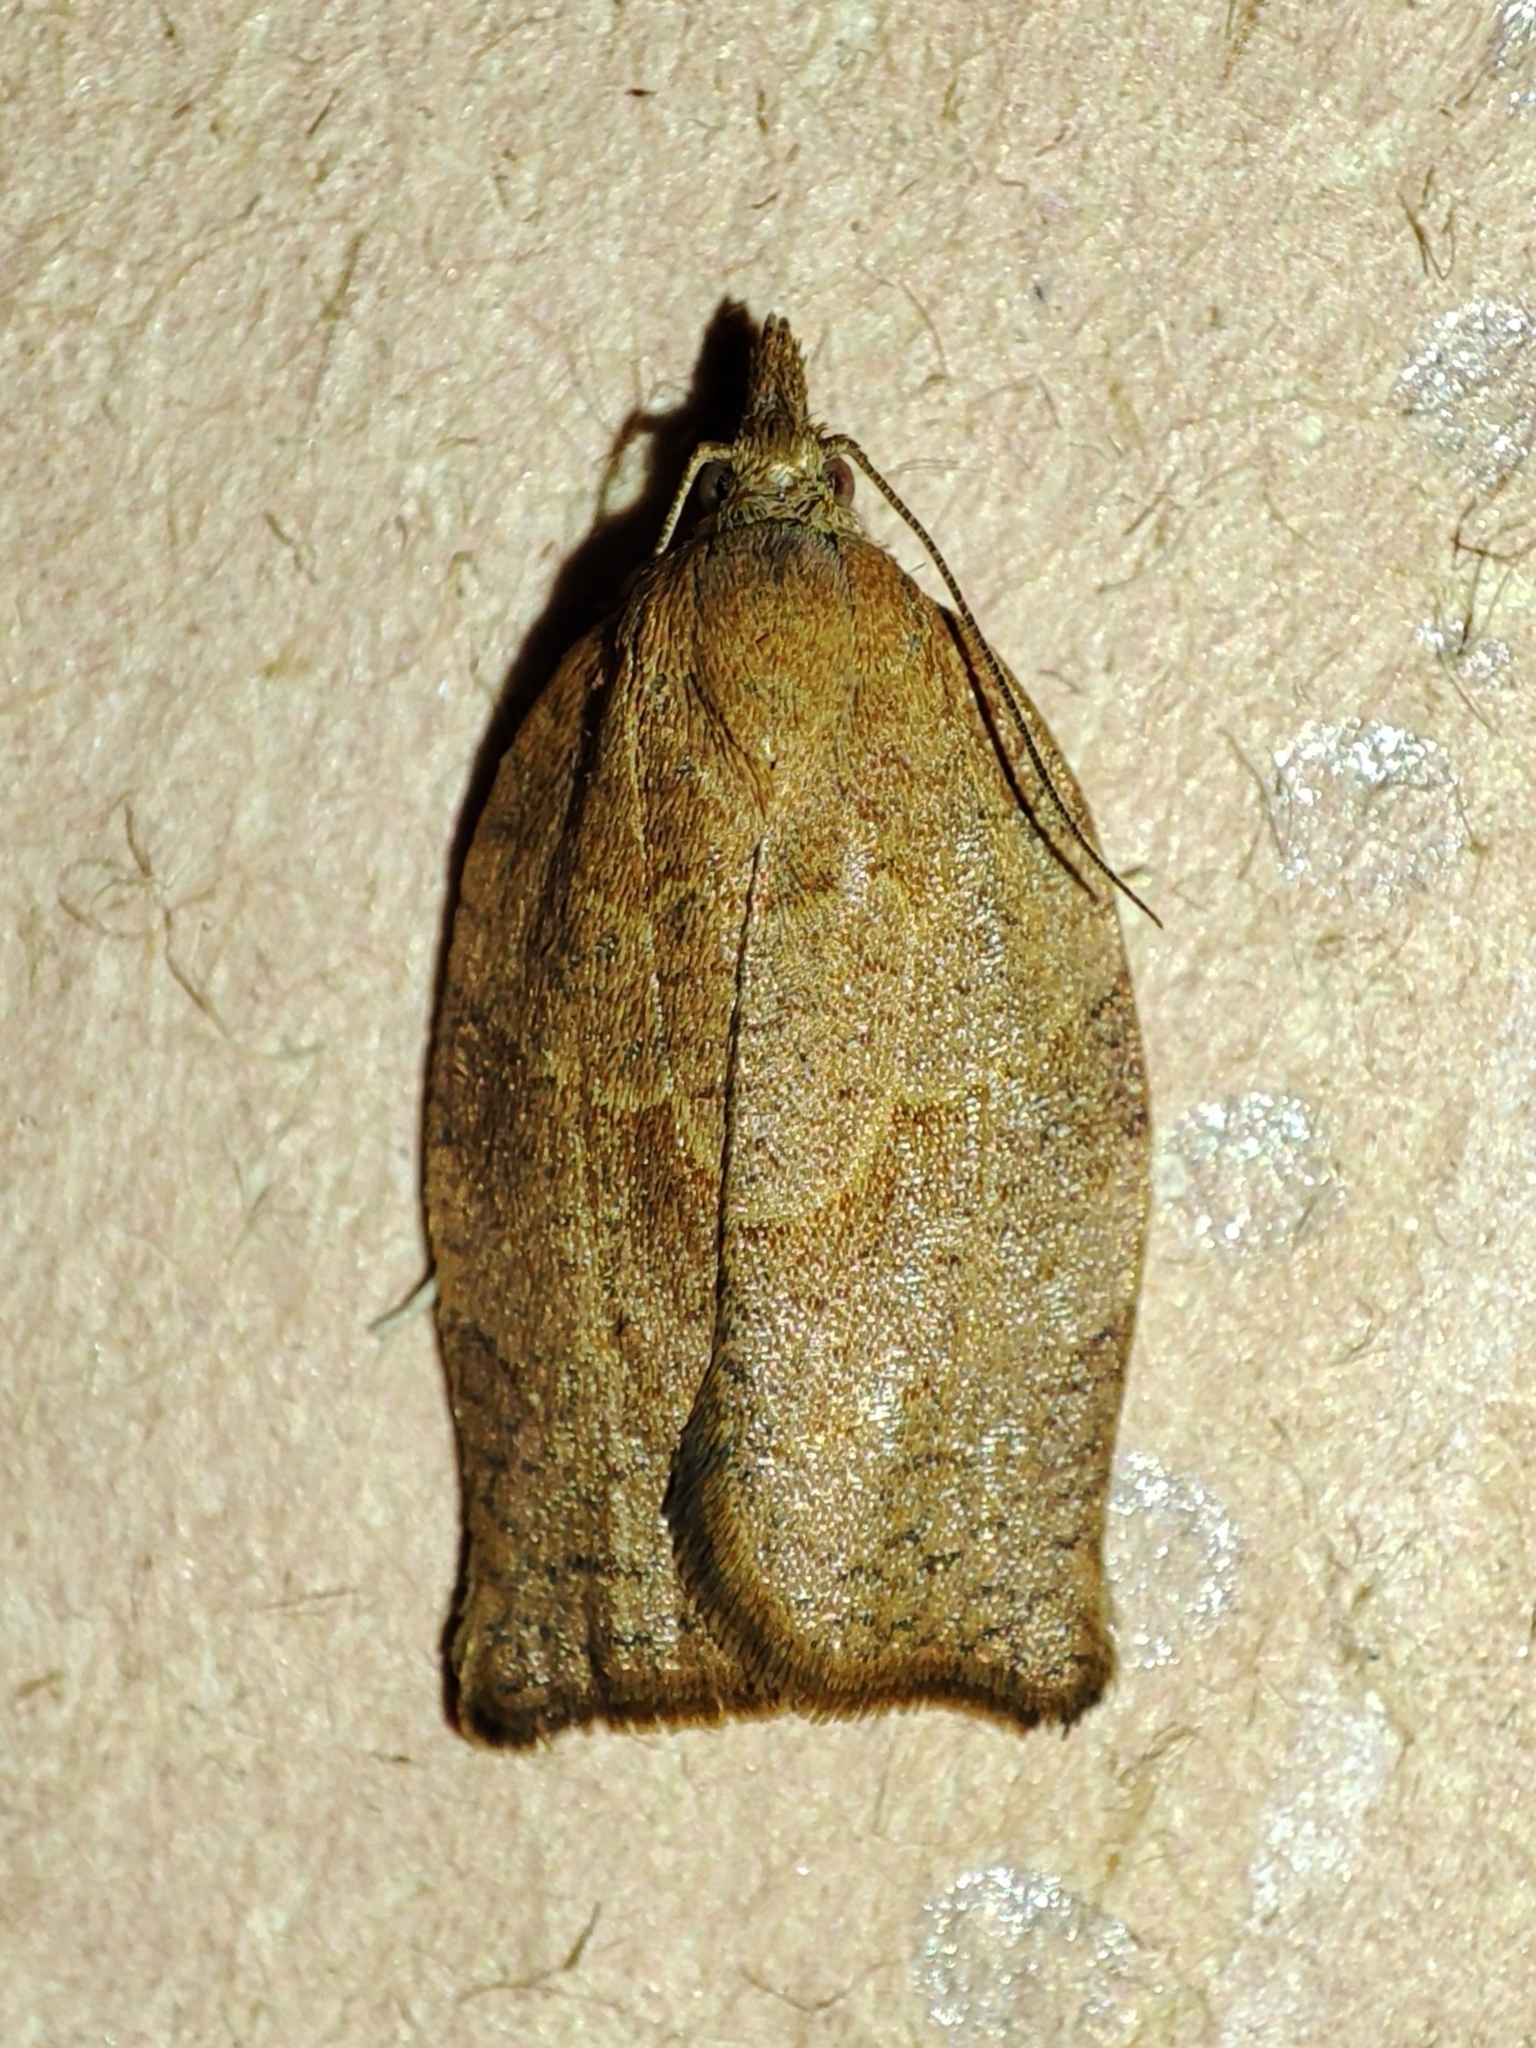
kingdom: Animalia
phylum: Arthropoda
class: Insecta
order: Lepidoptera
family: Tortricidae
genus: Pandemis
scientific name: Pandemis heparana
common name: Dark fruit-tree tortrix
